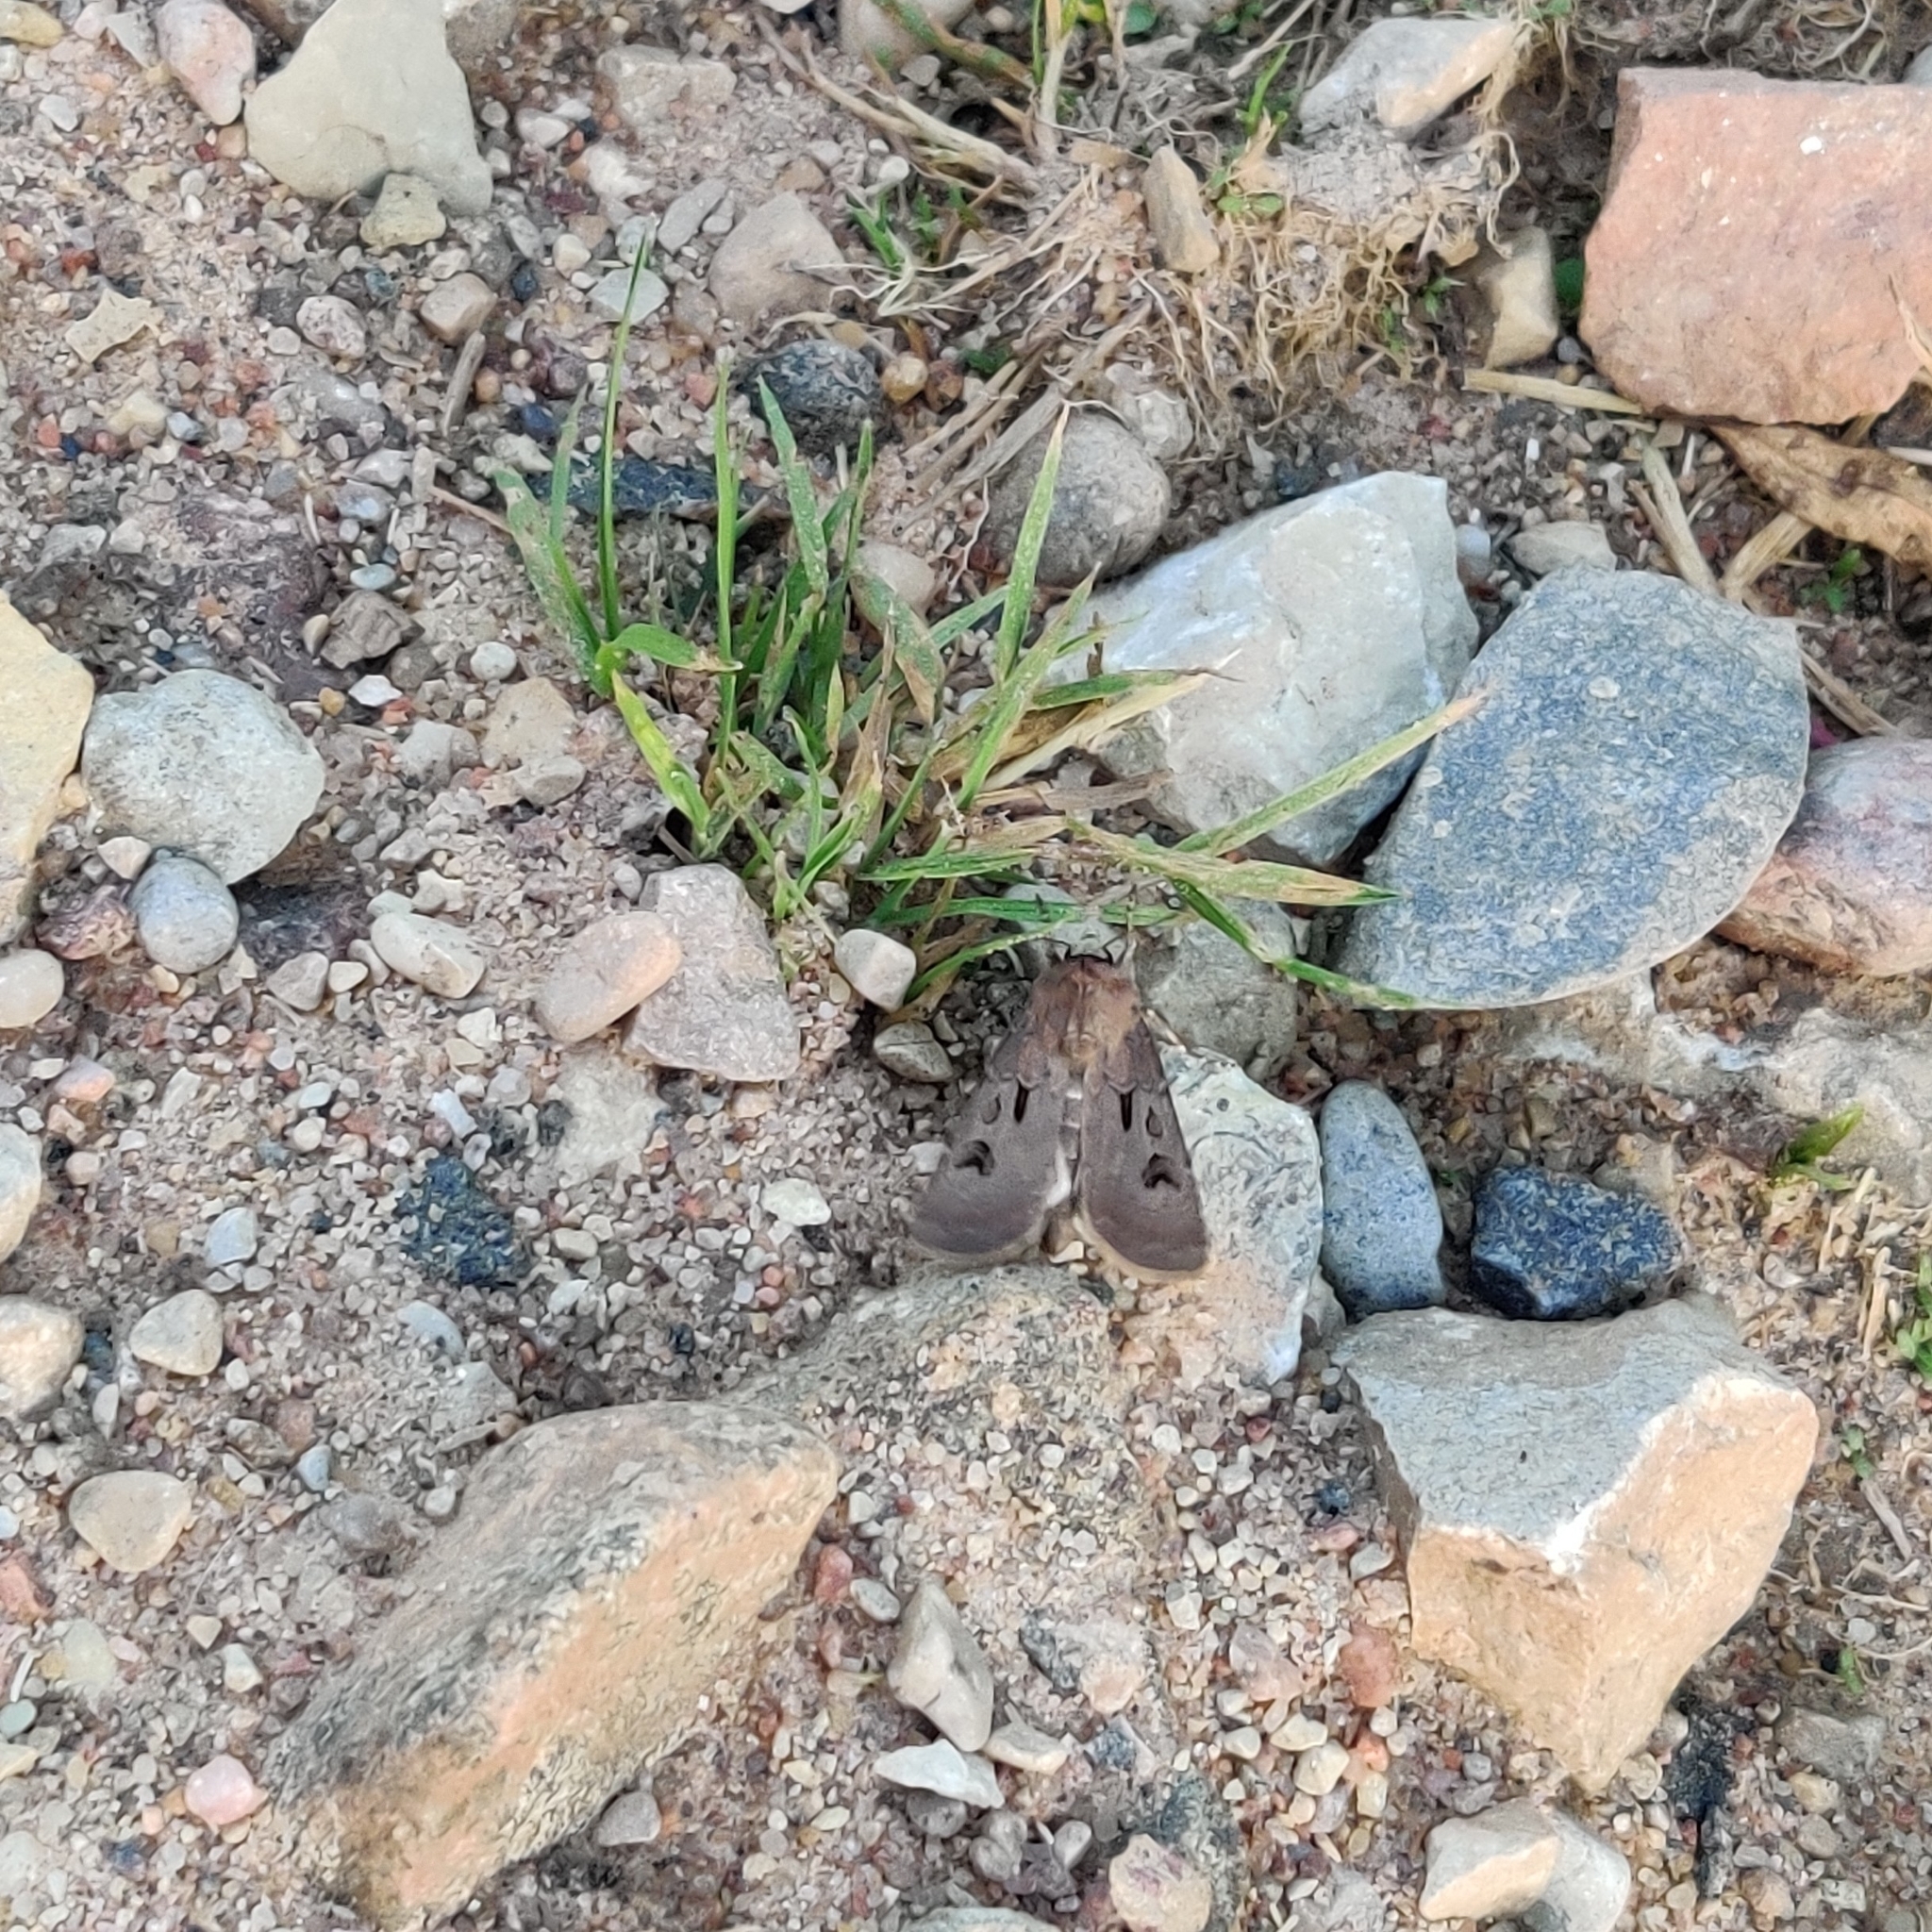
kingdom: Animalia
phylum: Arthropoda
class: Insecta
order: Lepidoptera
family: Noctuidae
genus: Agrotis
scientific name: Agrotis exclamationis
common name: Heart and dart
